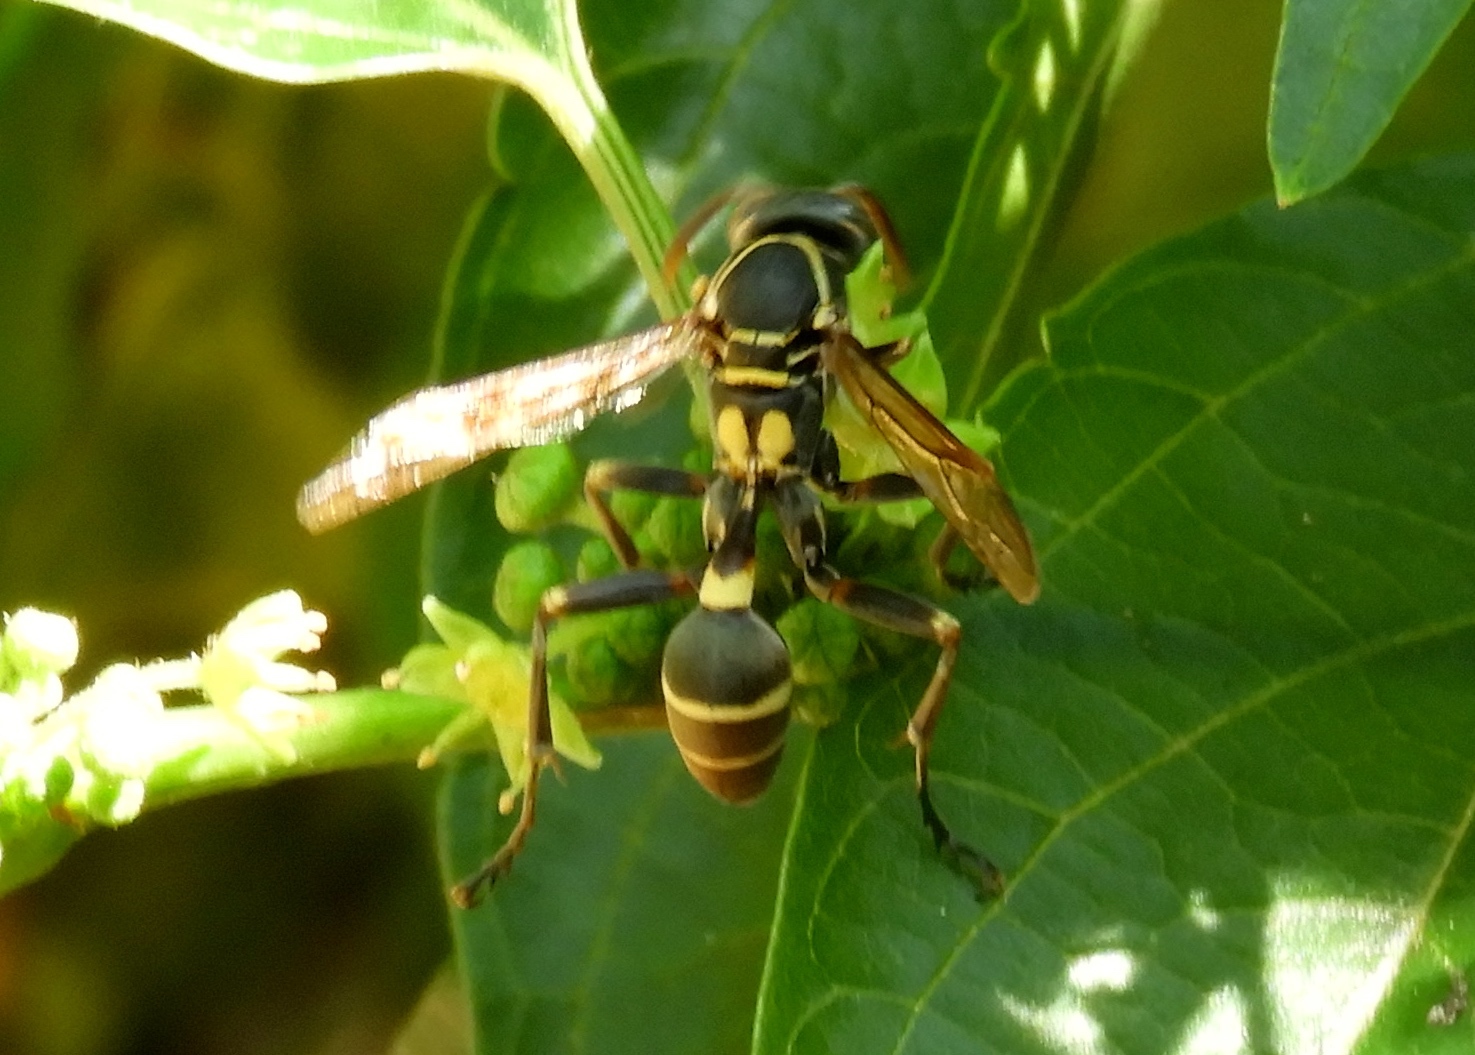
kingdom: Animalia
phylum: Arthropoda
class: Insecta
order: Hymenoptera
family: Vespidae
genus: Mischocyttarus
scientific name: Mischocyttarus
